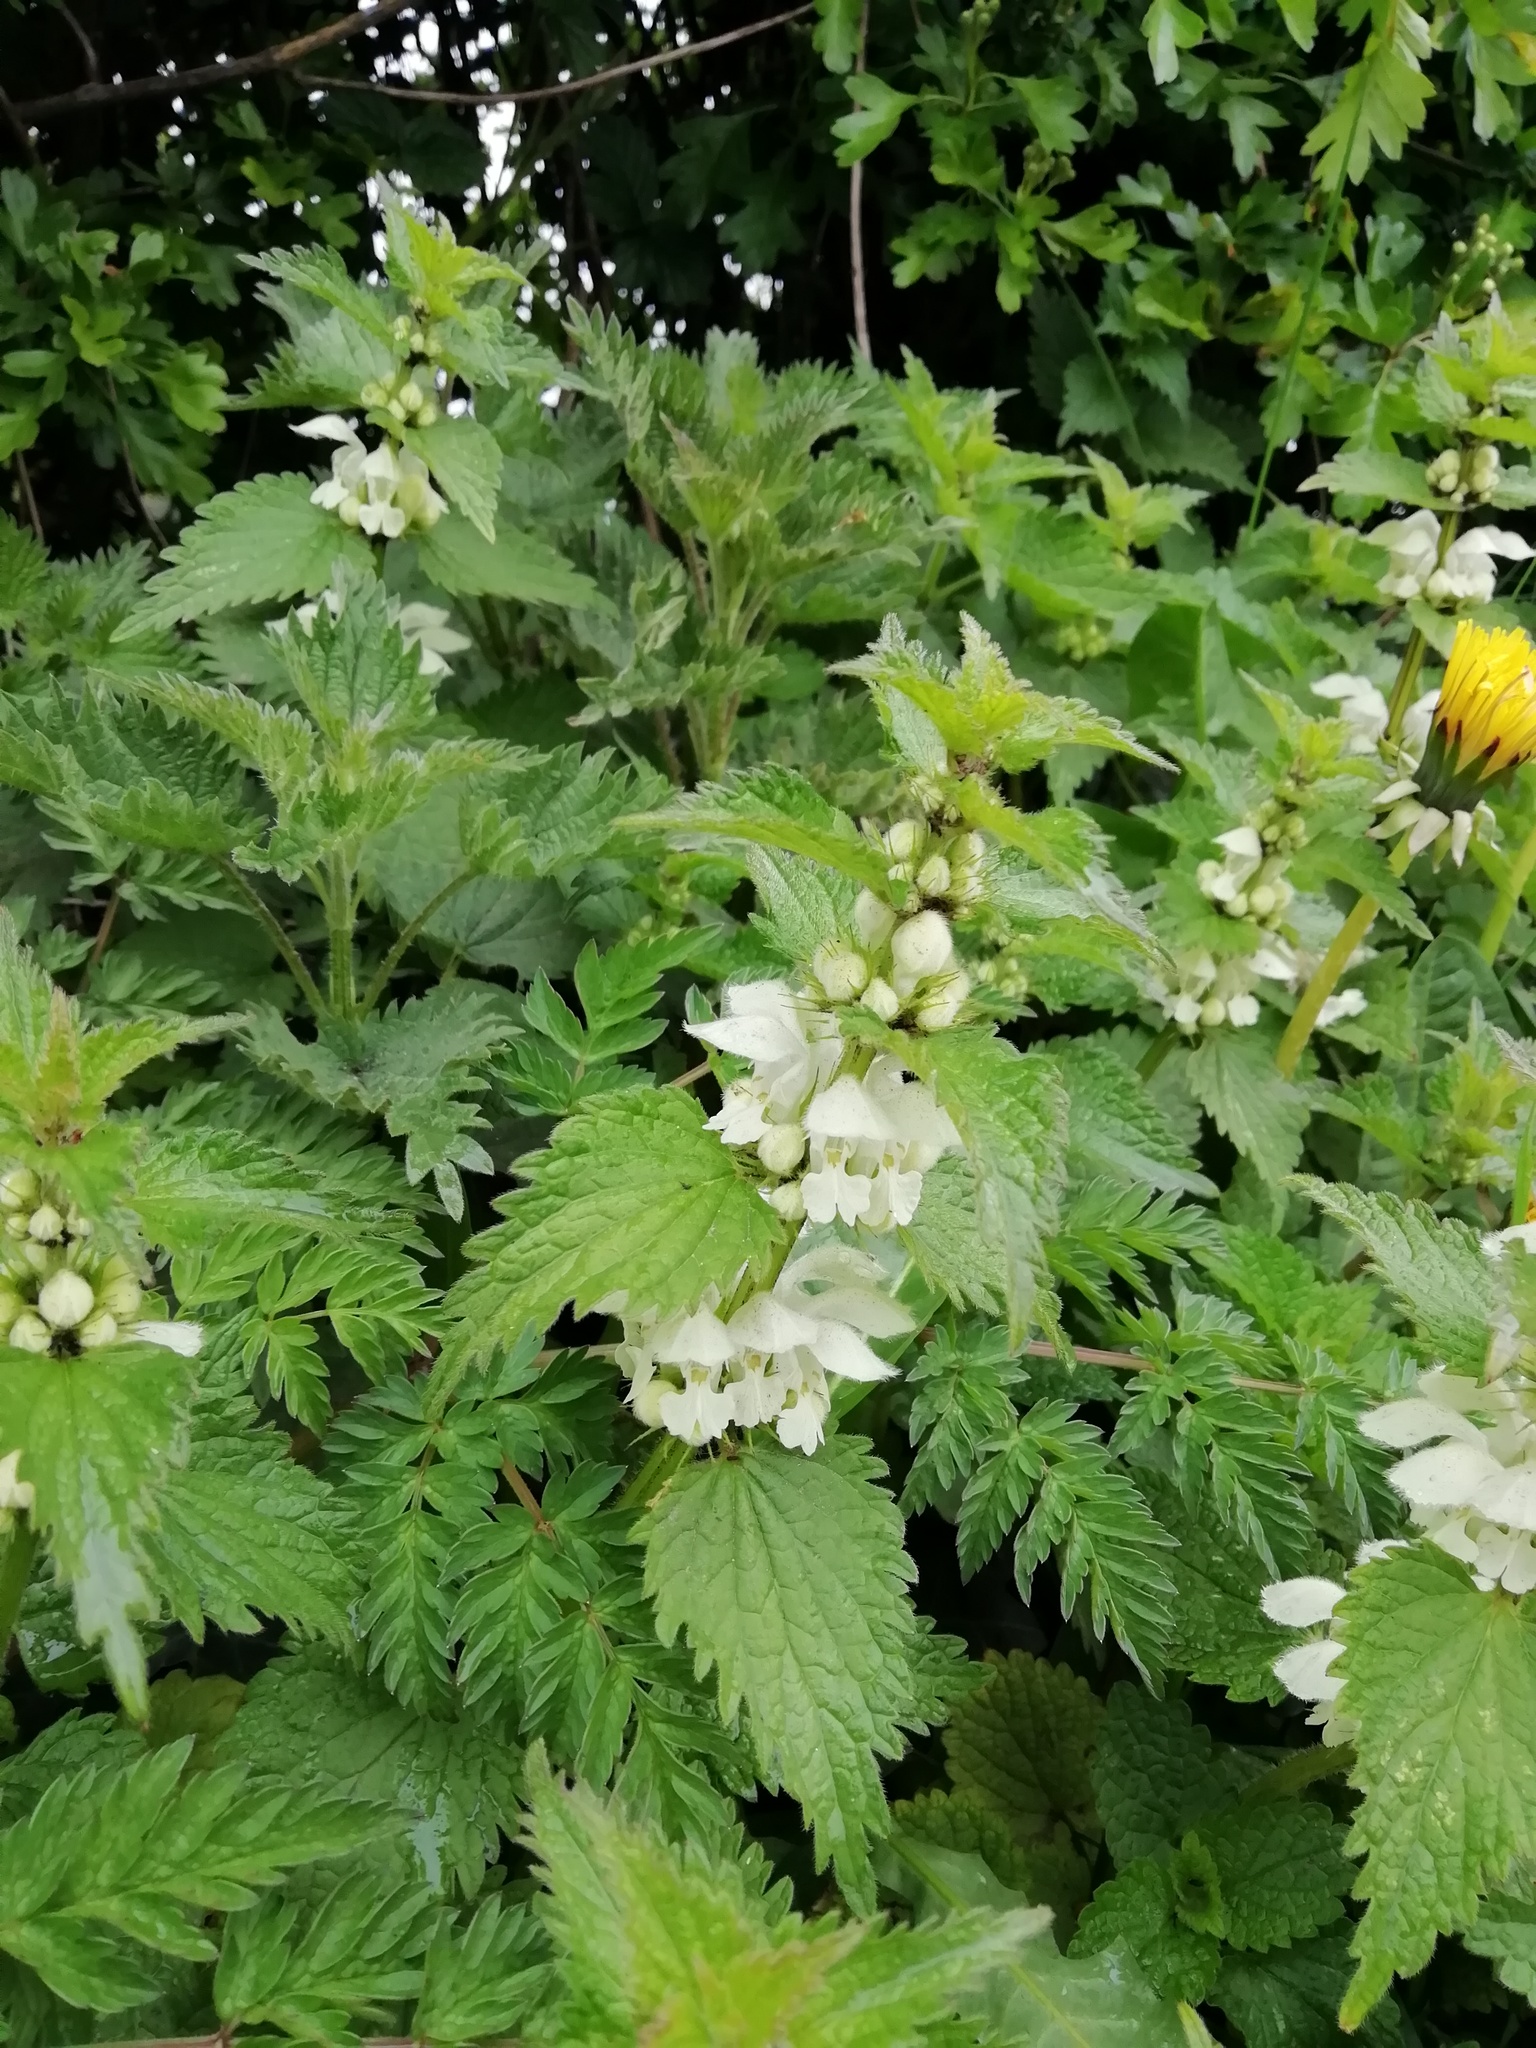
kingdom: Plantae
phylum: Tracheophyta
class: Magnoliopsida
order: Lamiales
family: Lamiaceae
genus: Lamium
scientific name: Lamium album
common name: White dead-nettle
